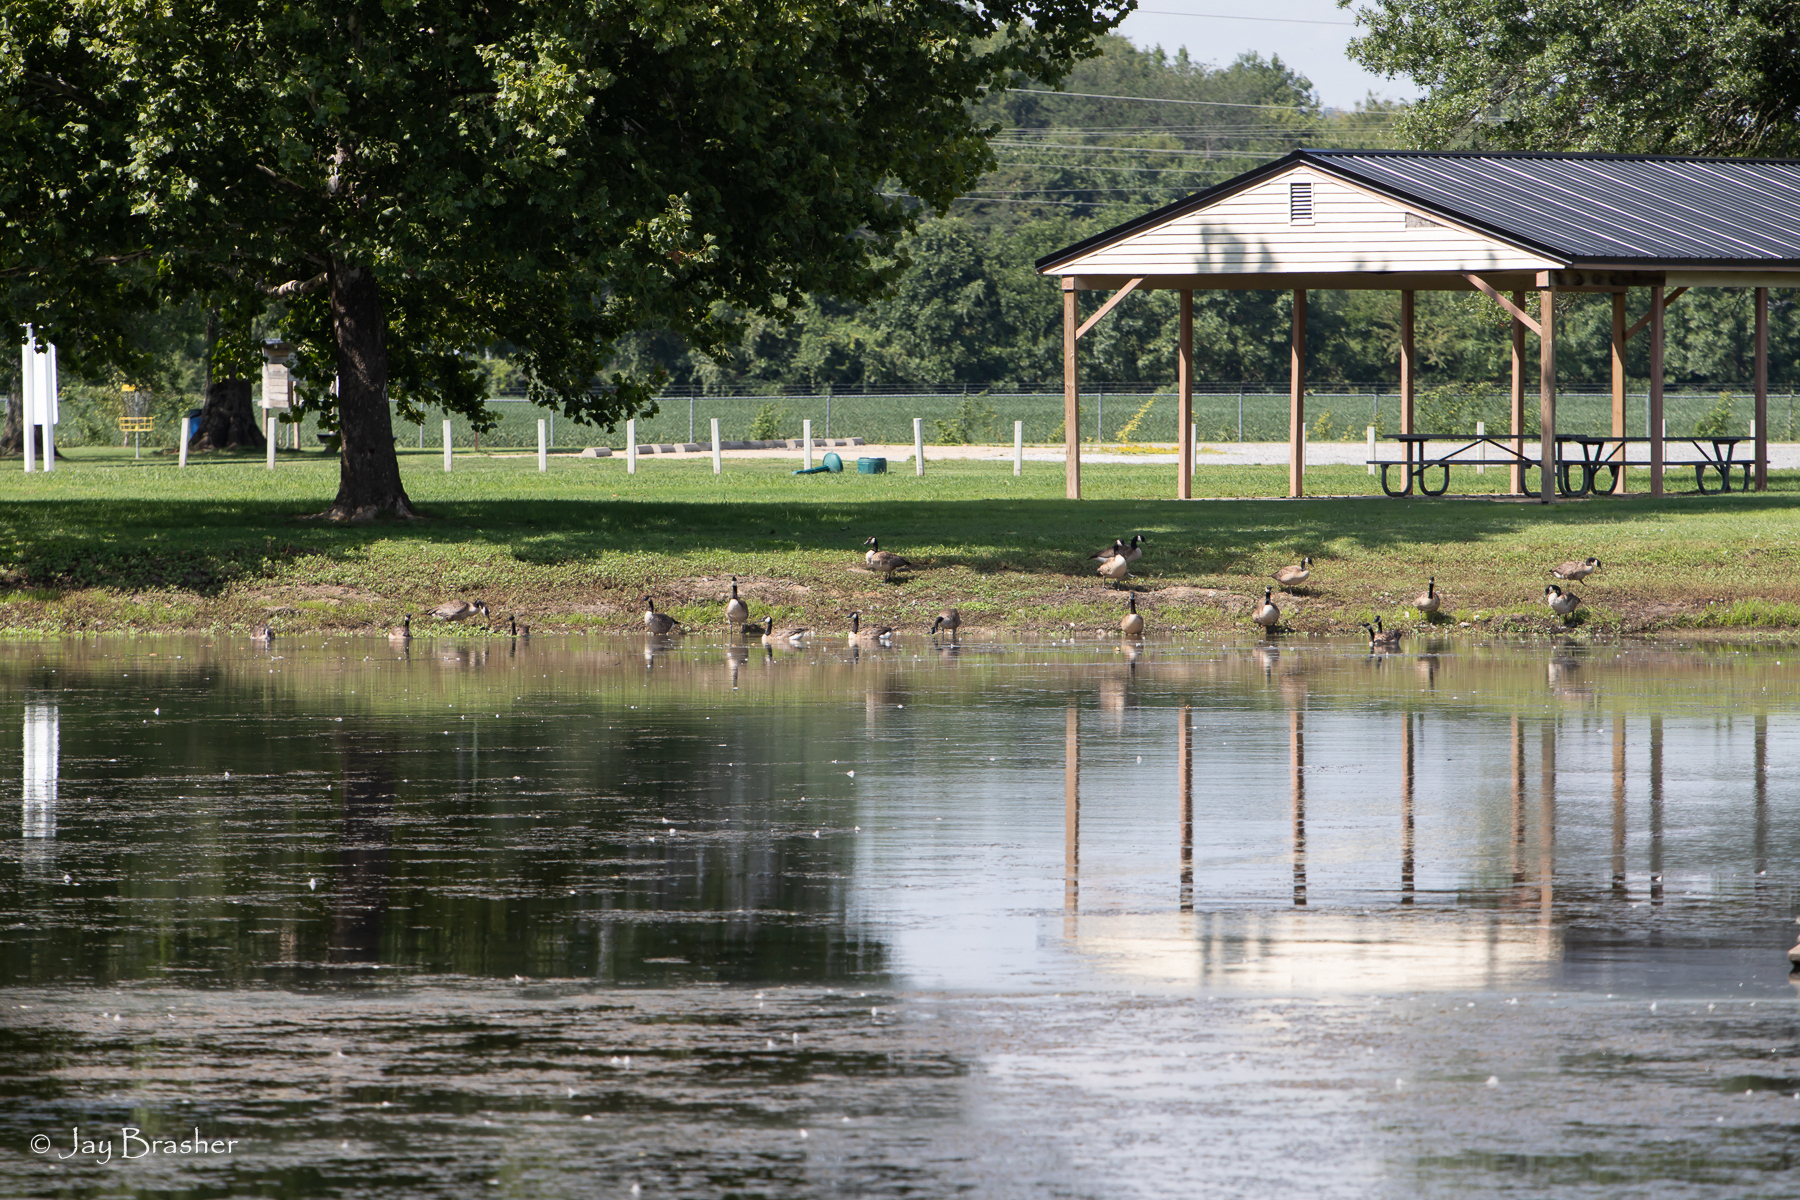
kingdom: Animalia
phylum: Chordata
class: Aves
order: Anseriformes
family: Anatidae
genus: Branta
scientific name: Branta canadensis
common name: Canada goose
